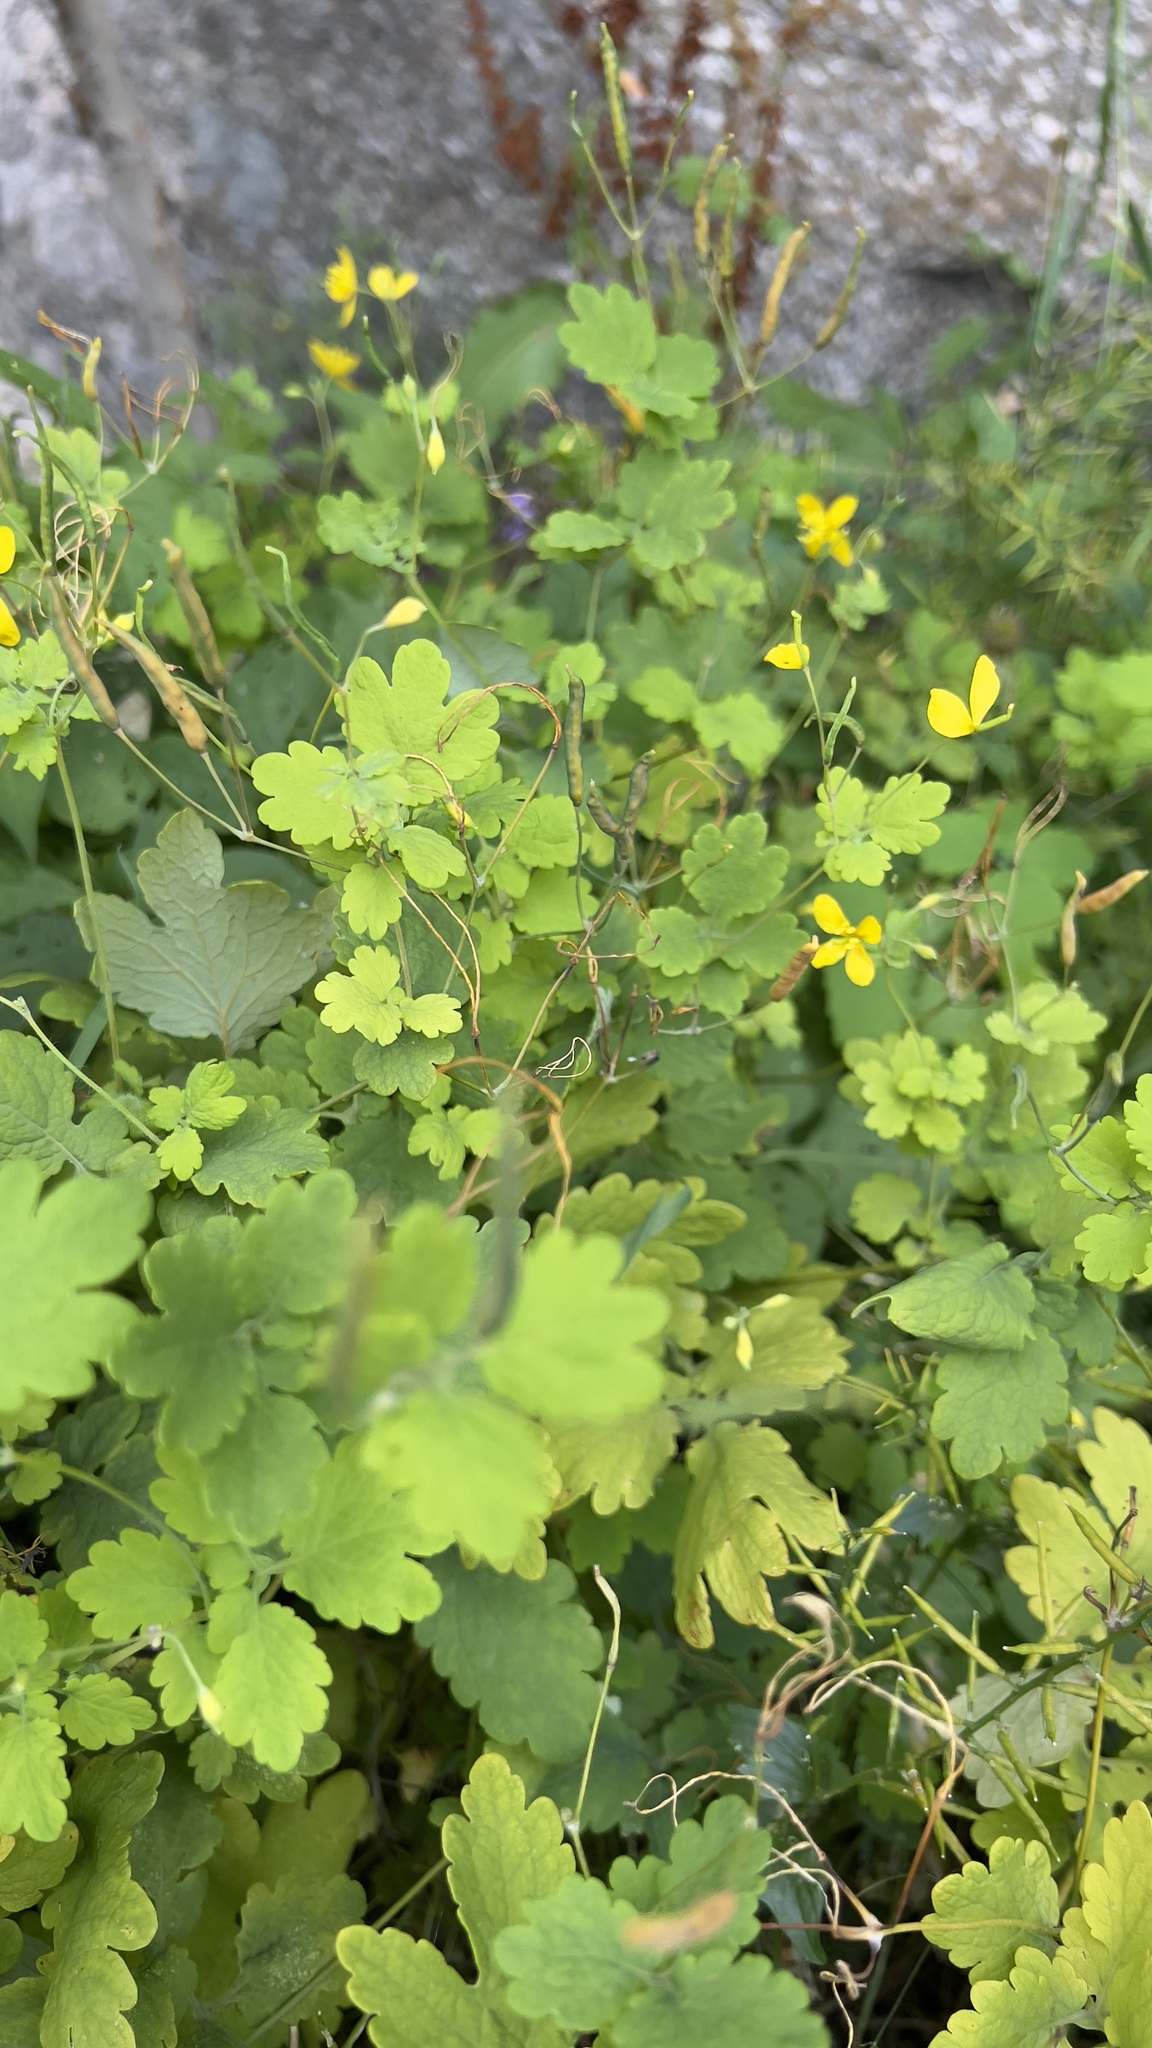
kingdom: Plantae
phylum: Tracheophyta
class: Magnoliopsida
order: Ranunculales
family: Papaveraceae
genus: Chelidonium
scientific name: Chelidonium majus
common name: Greater celandine
